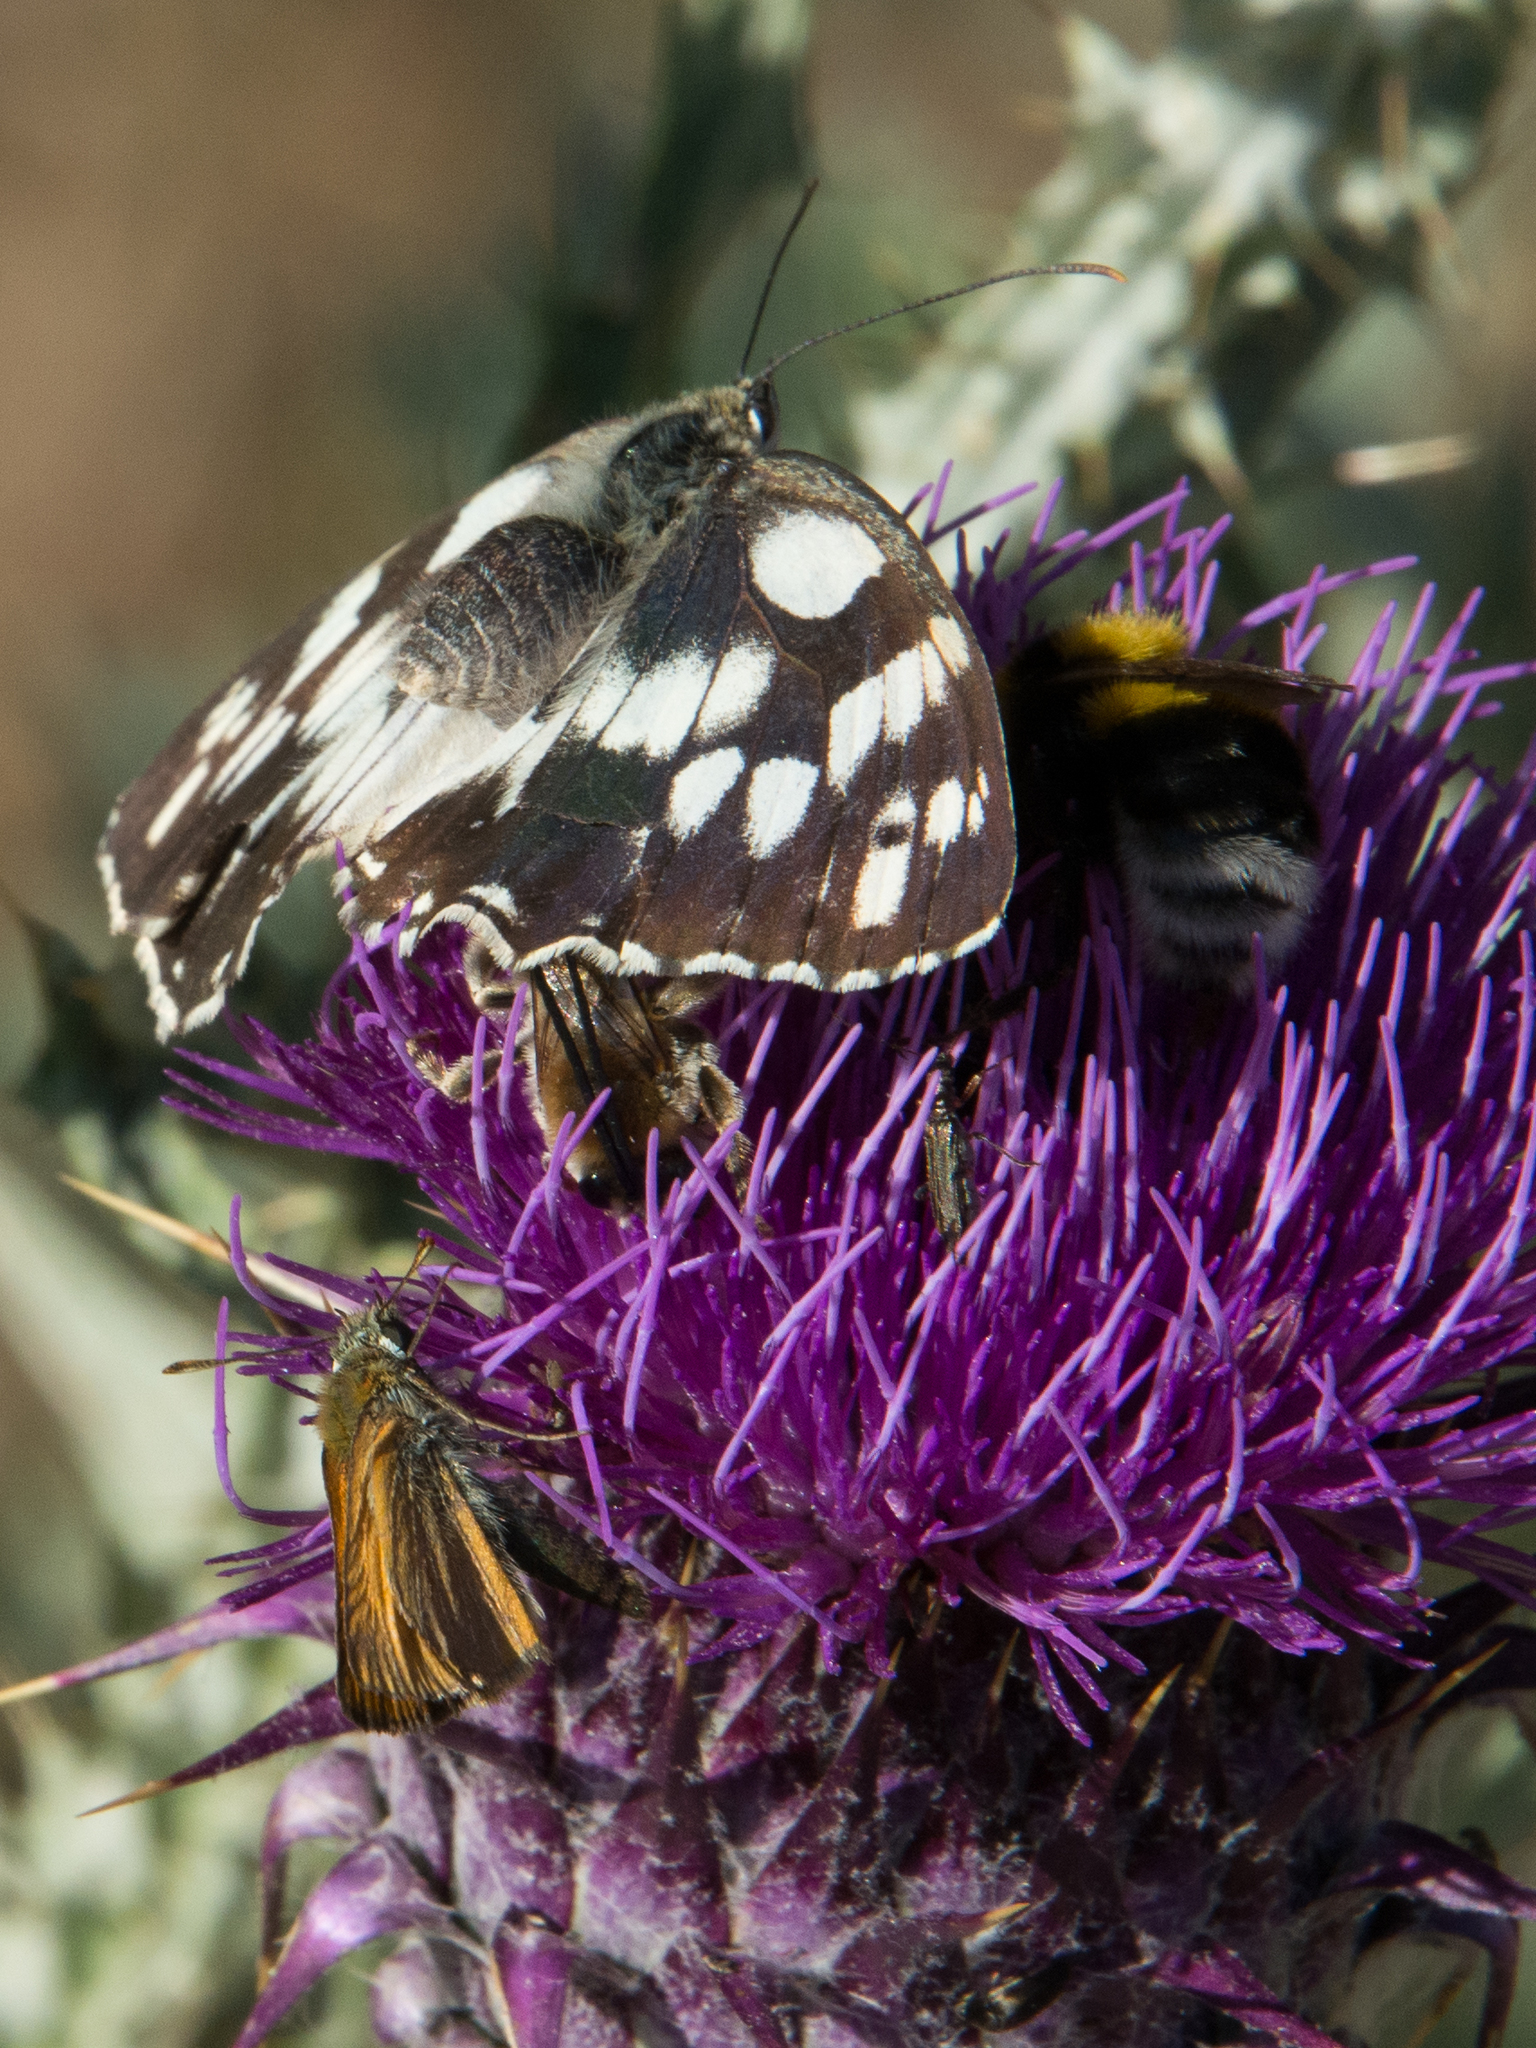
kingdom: Animalia
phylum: Arthropoda
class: Insecta
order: Lepidoptera
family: Nymphalidae
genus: Melanargia
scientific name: Melanargia galathea
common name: Marbled white
